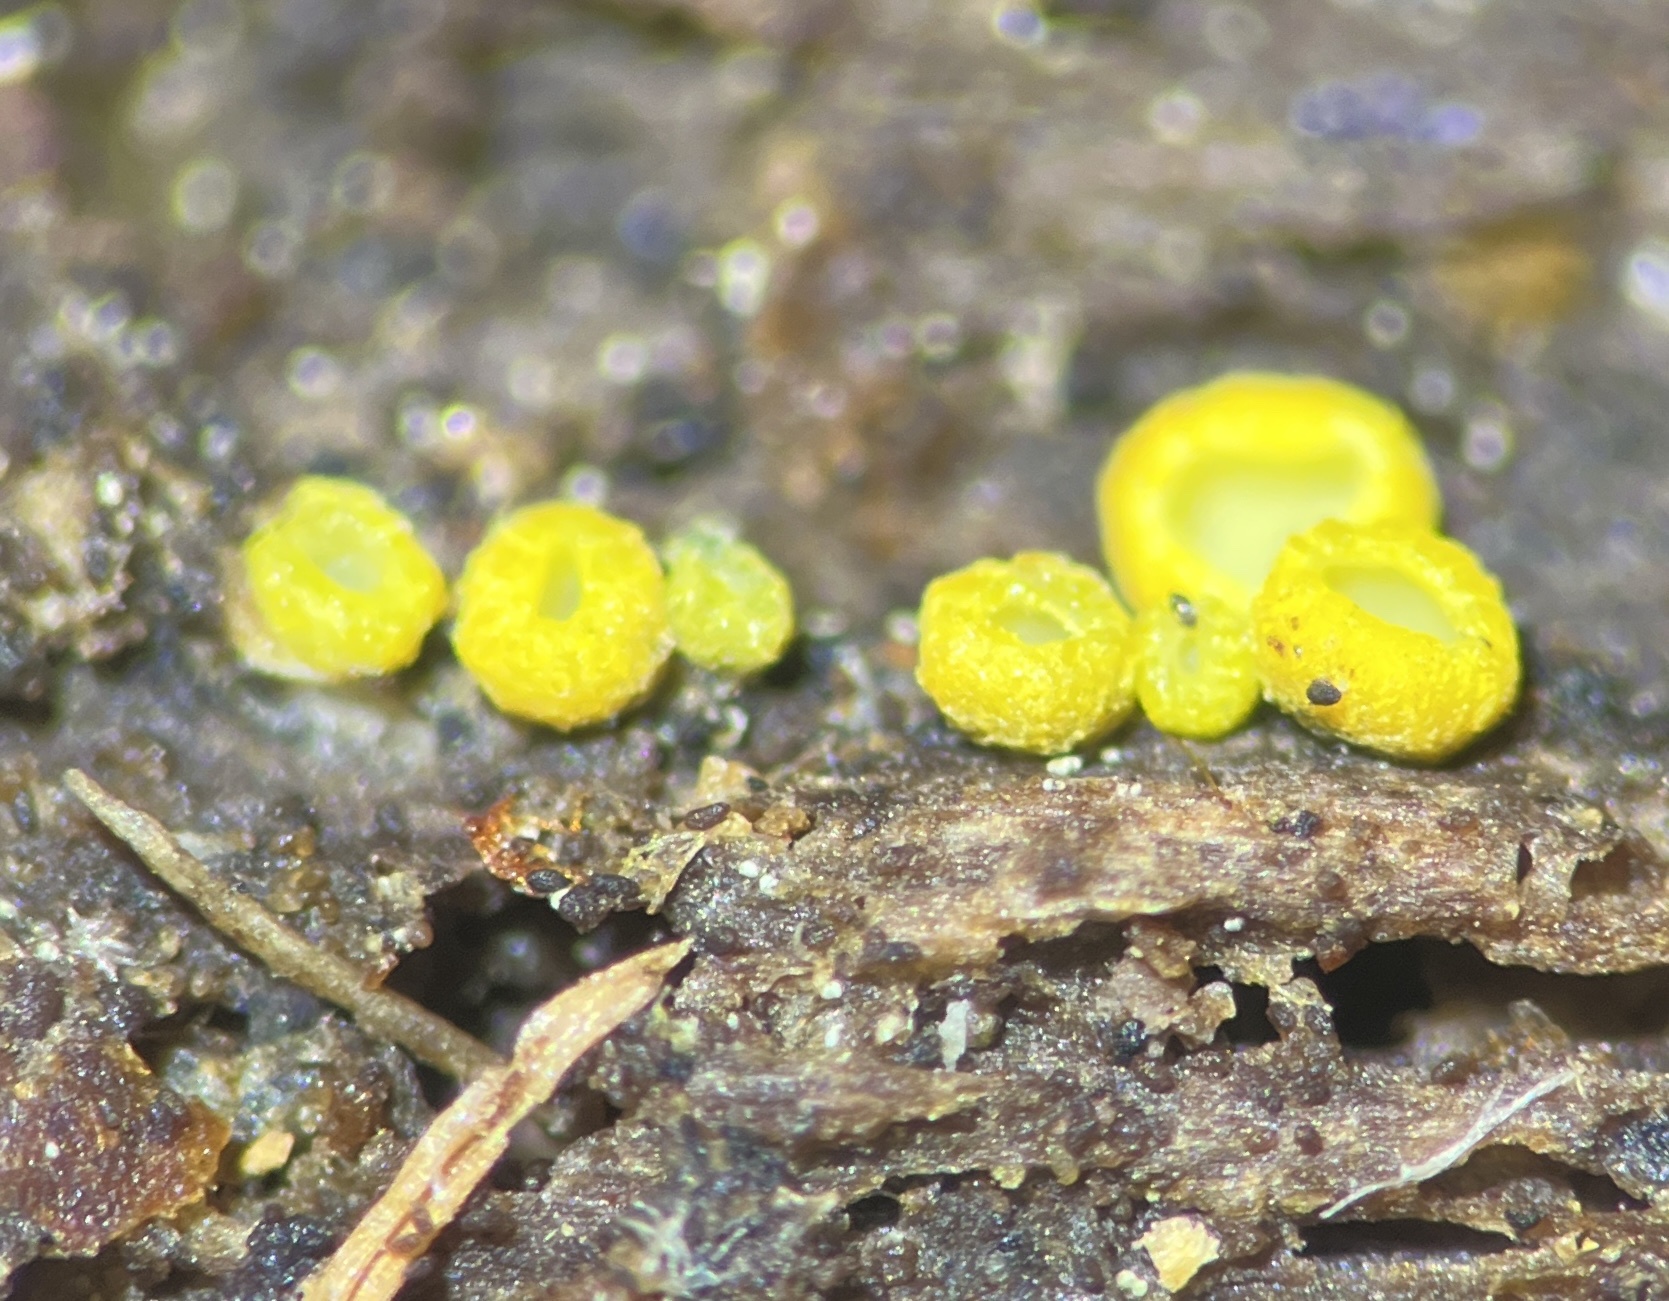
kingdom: Fungi
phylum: Ascomycota
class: Leotiomycetes
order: Helotiales
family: Chlorospleniaceae
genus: Chlorosplenium
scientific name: Chlorosplenium chlora
